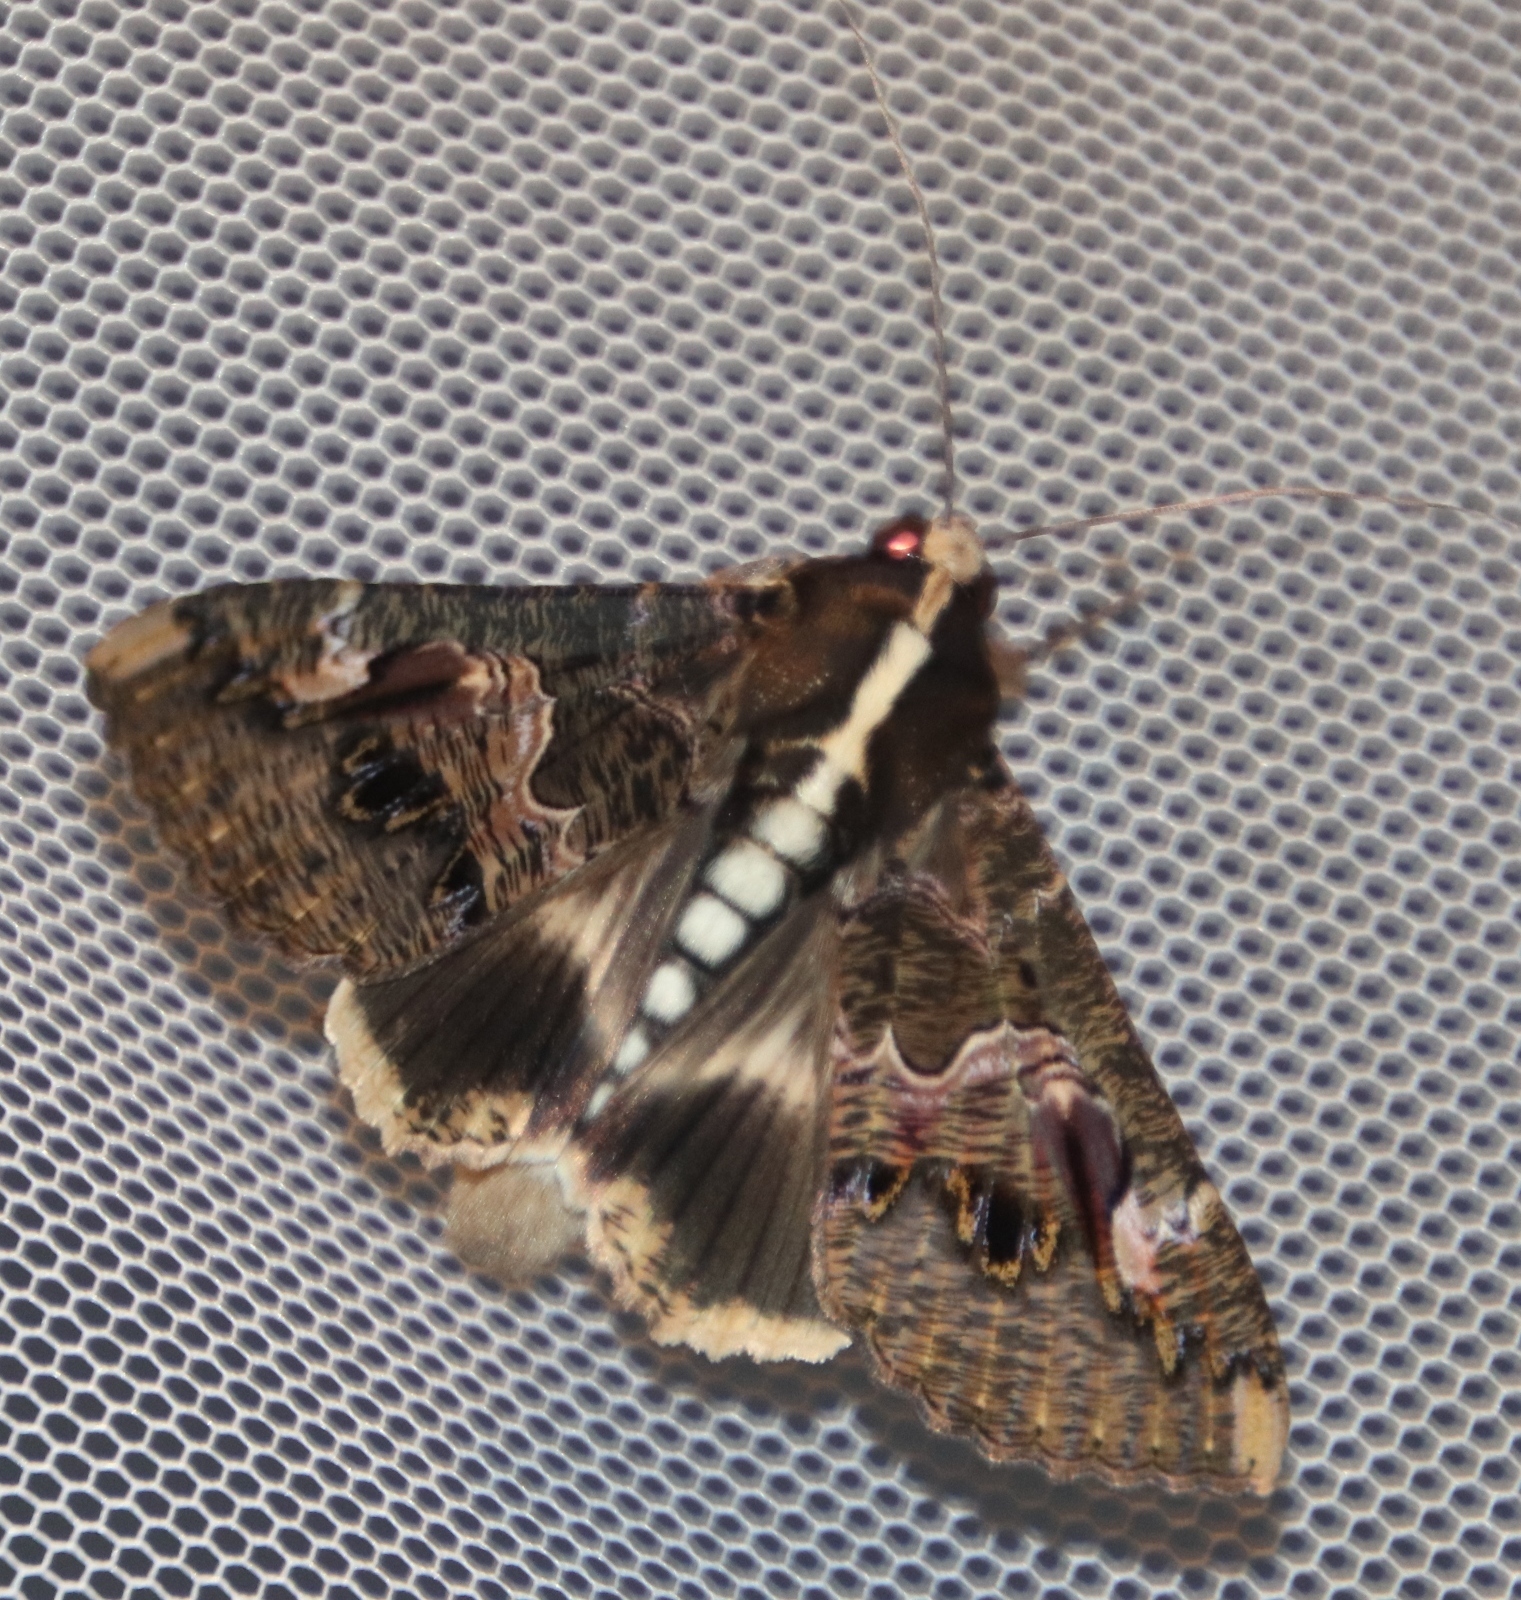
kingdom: Animalia
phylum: Arthropoda
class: Insecta
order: Lepidoptera
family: Erebidae
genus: Sphingomorpha
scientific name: Sphingomorpha chlorea
